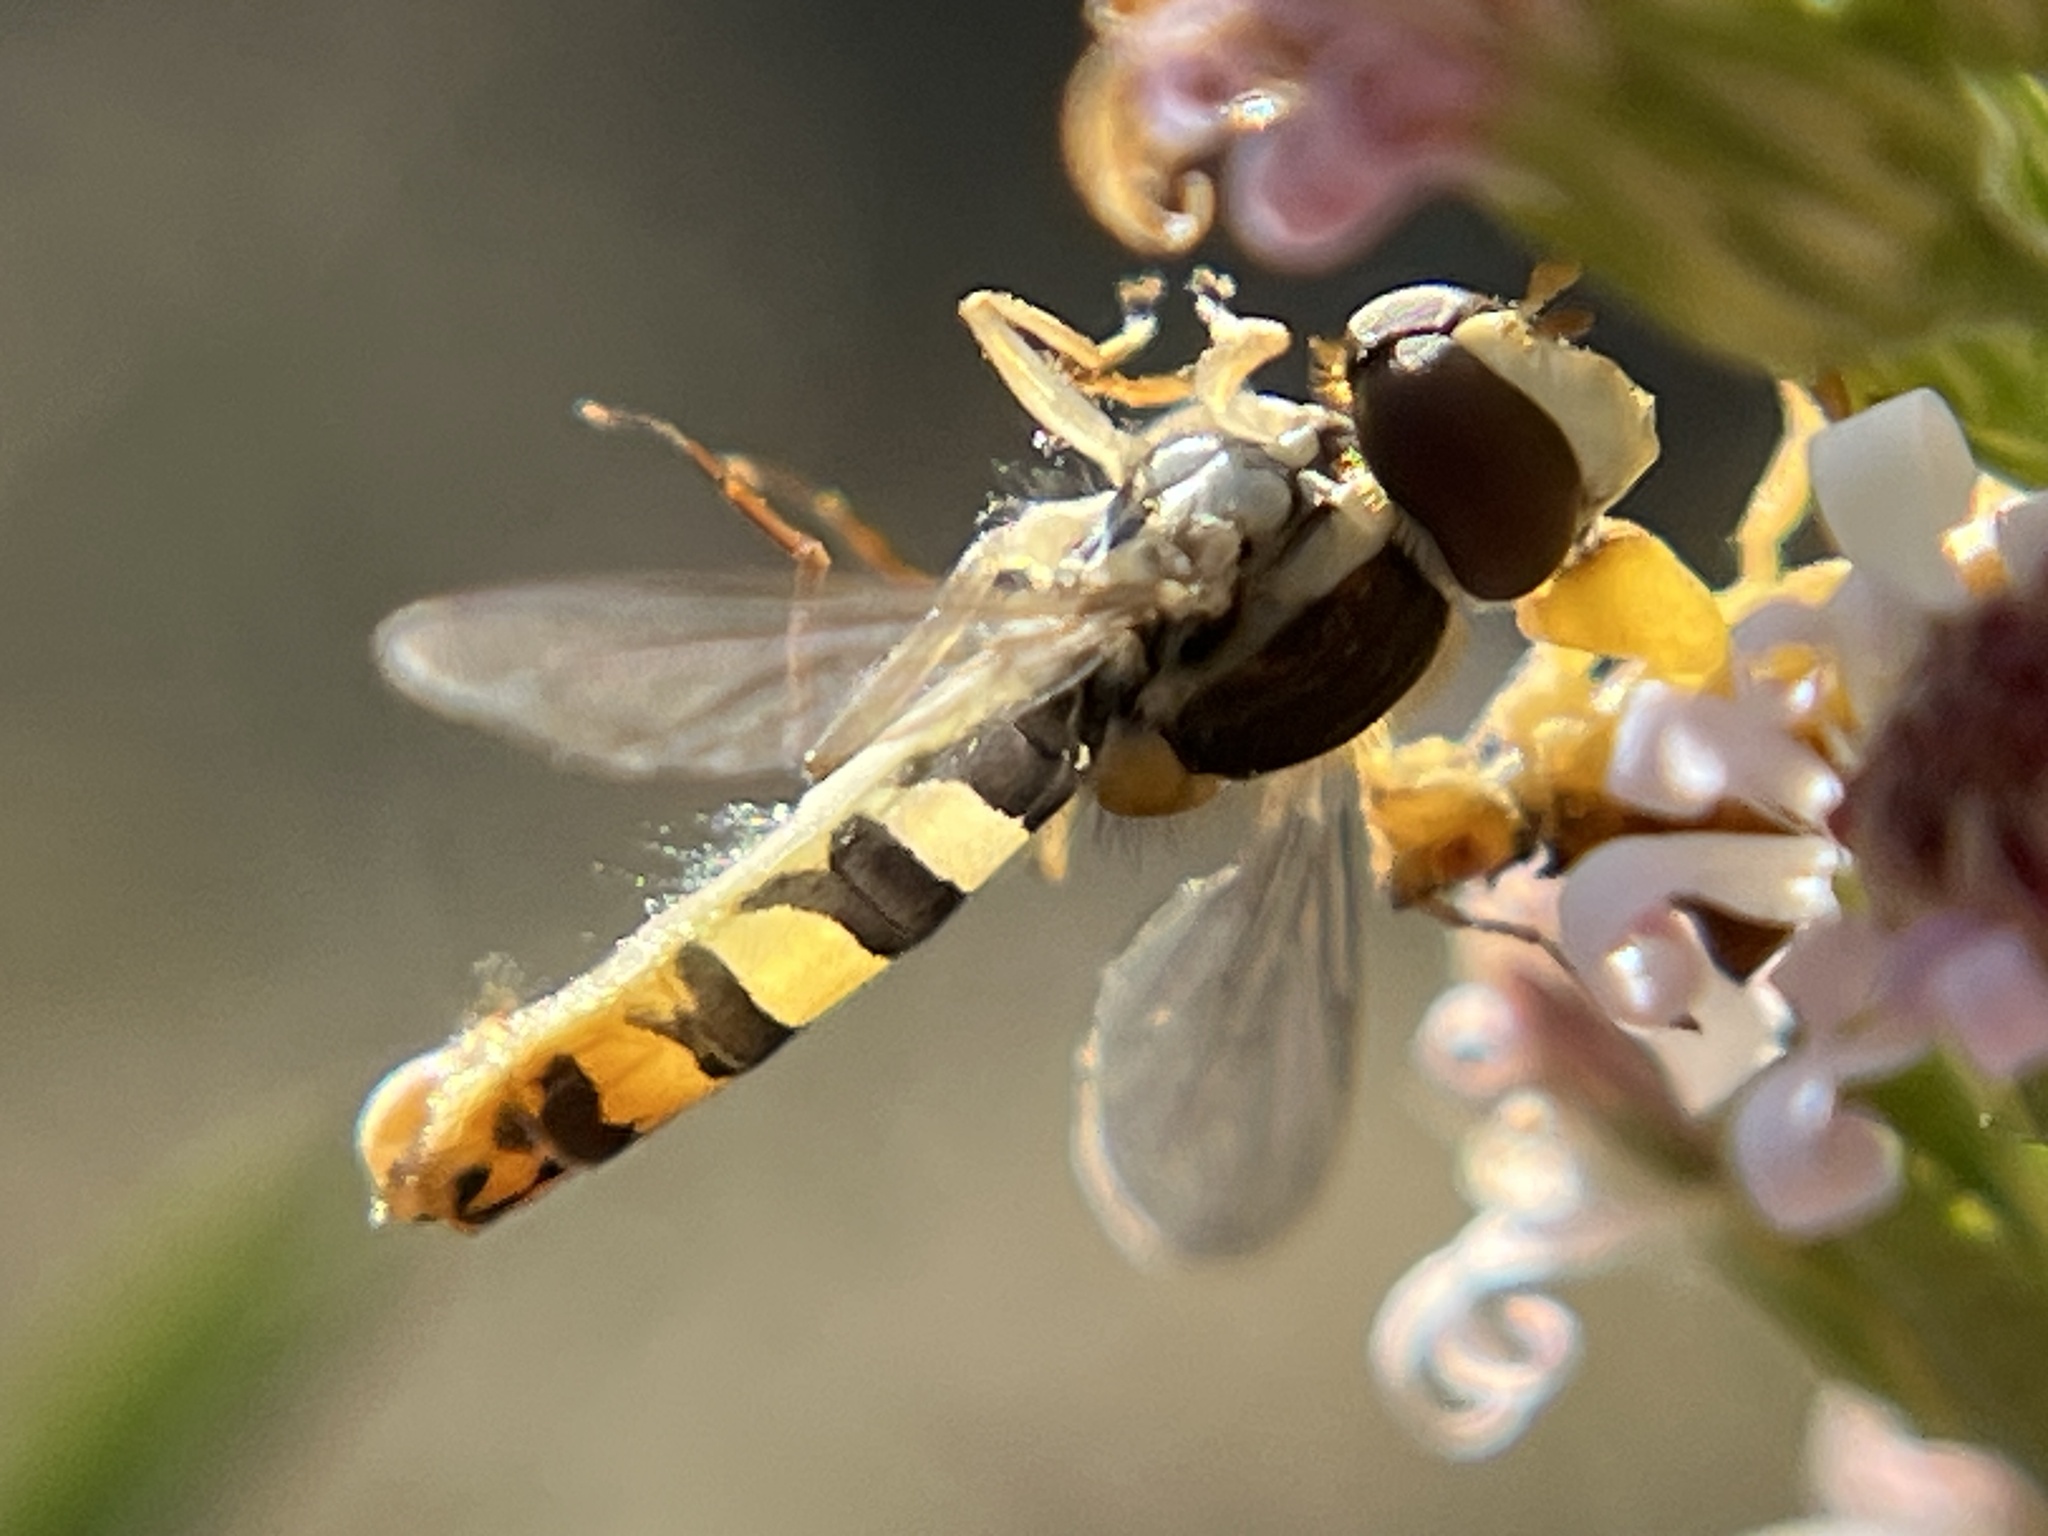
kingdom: Animalia
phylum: Arthropoda
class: Insecta
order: Diptera
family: Syrphidae
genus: Sphaerophoria
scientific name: Sphaerophoria philantha
